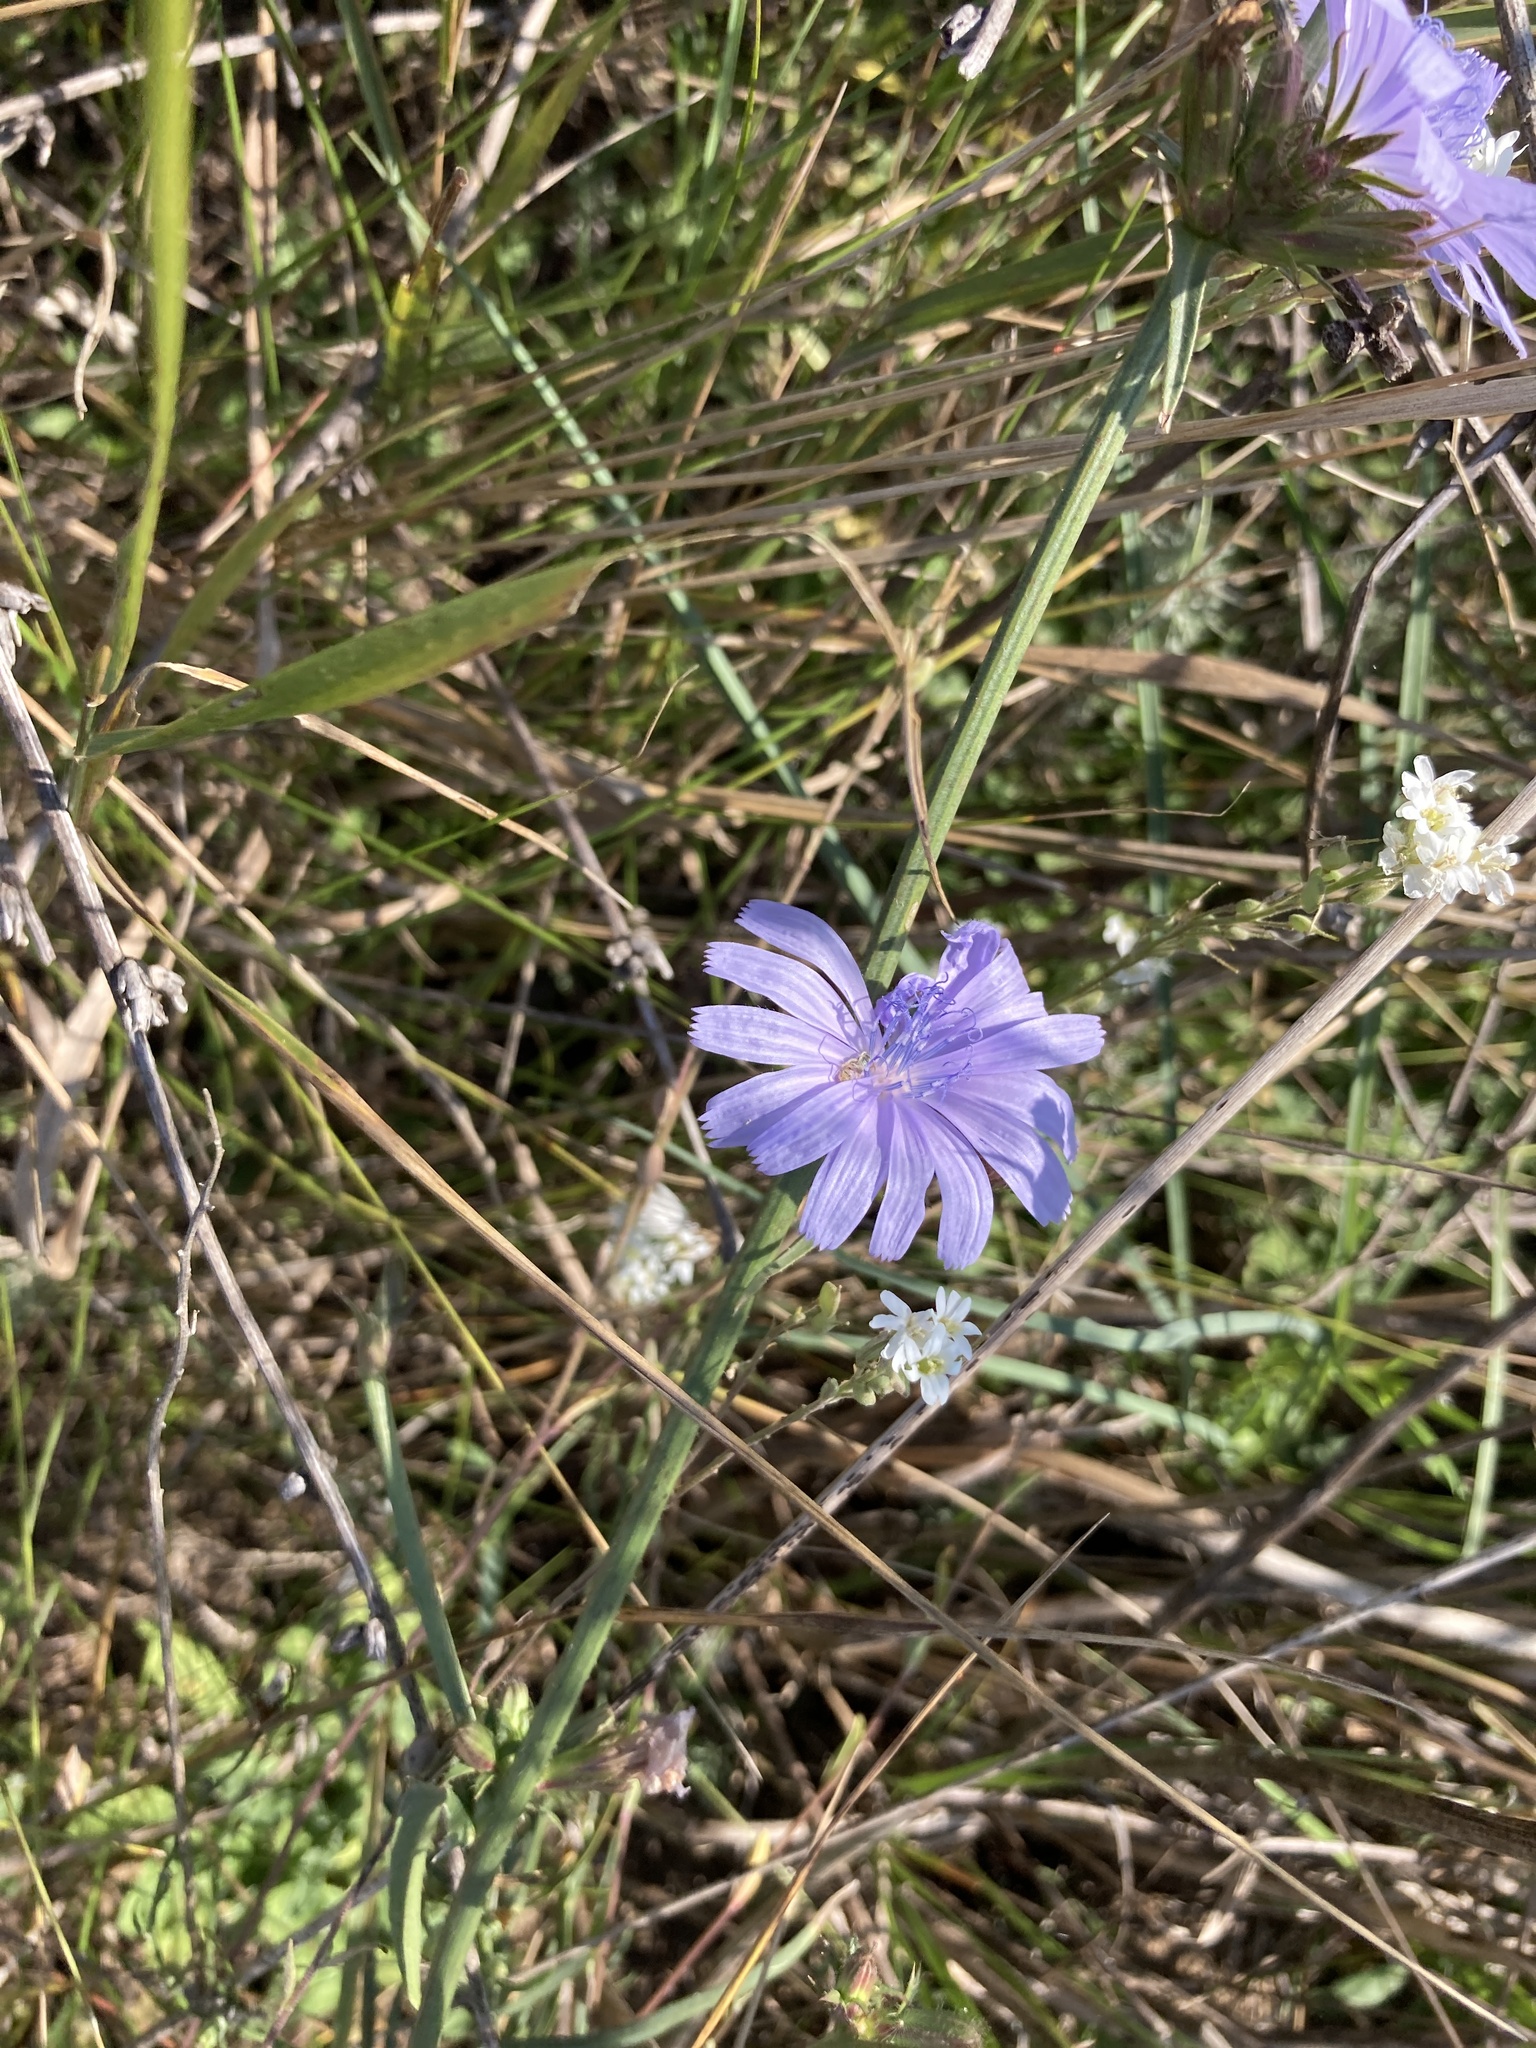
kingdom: Plantae
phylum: Tracheophyta
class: Magnoliopsida
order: Asterales
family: Asteraceae
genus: Cichorium
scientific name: Cichorium intybus
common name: Chicory
